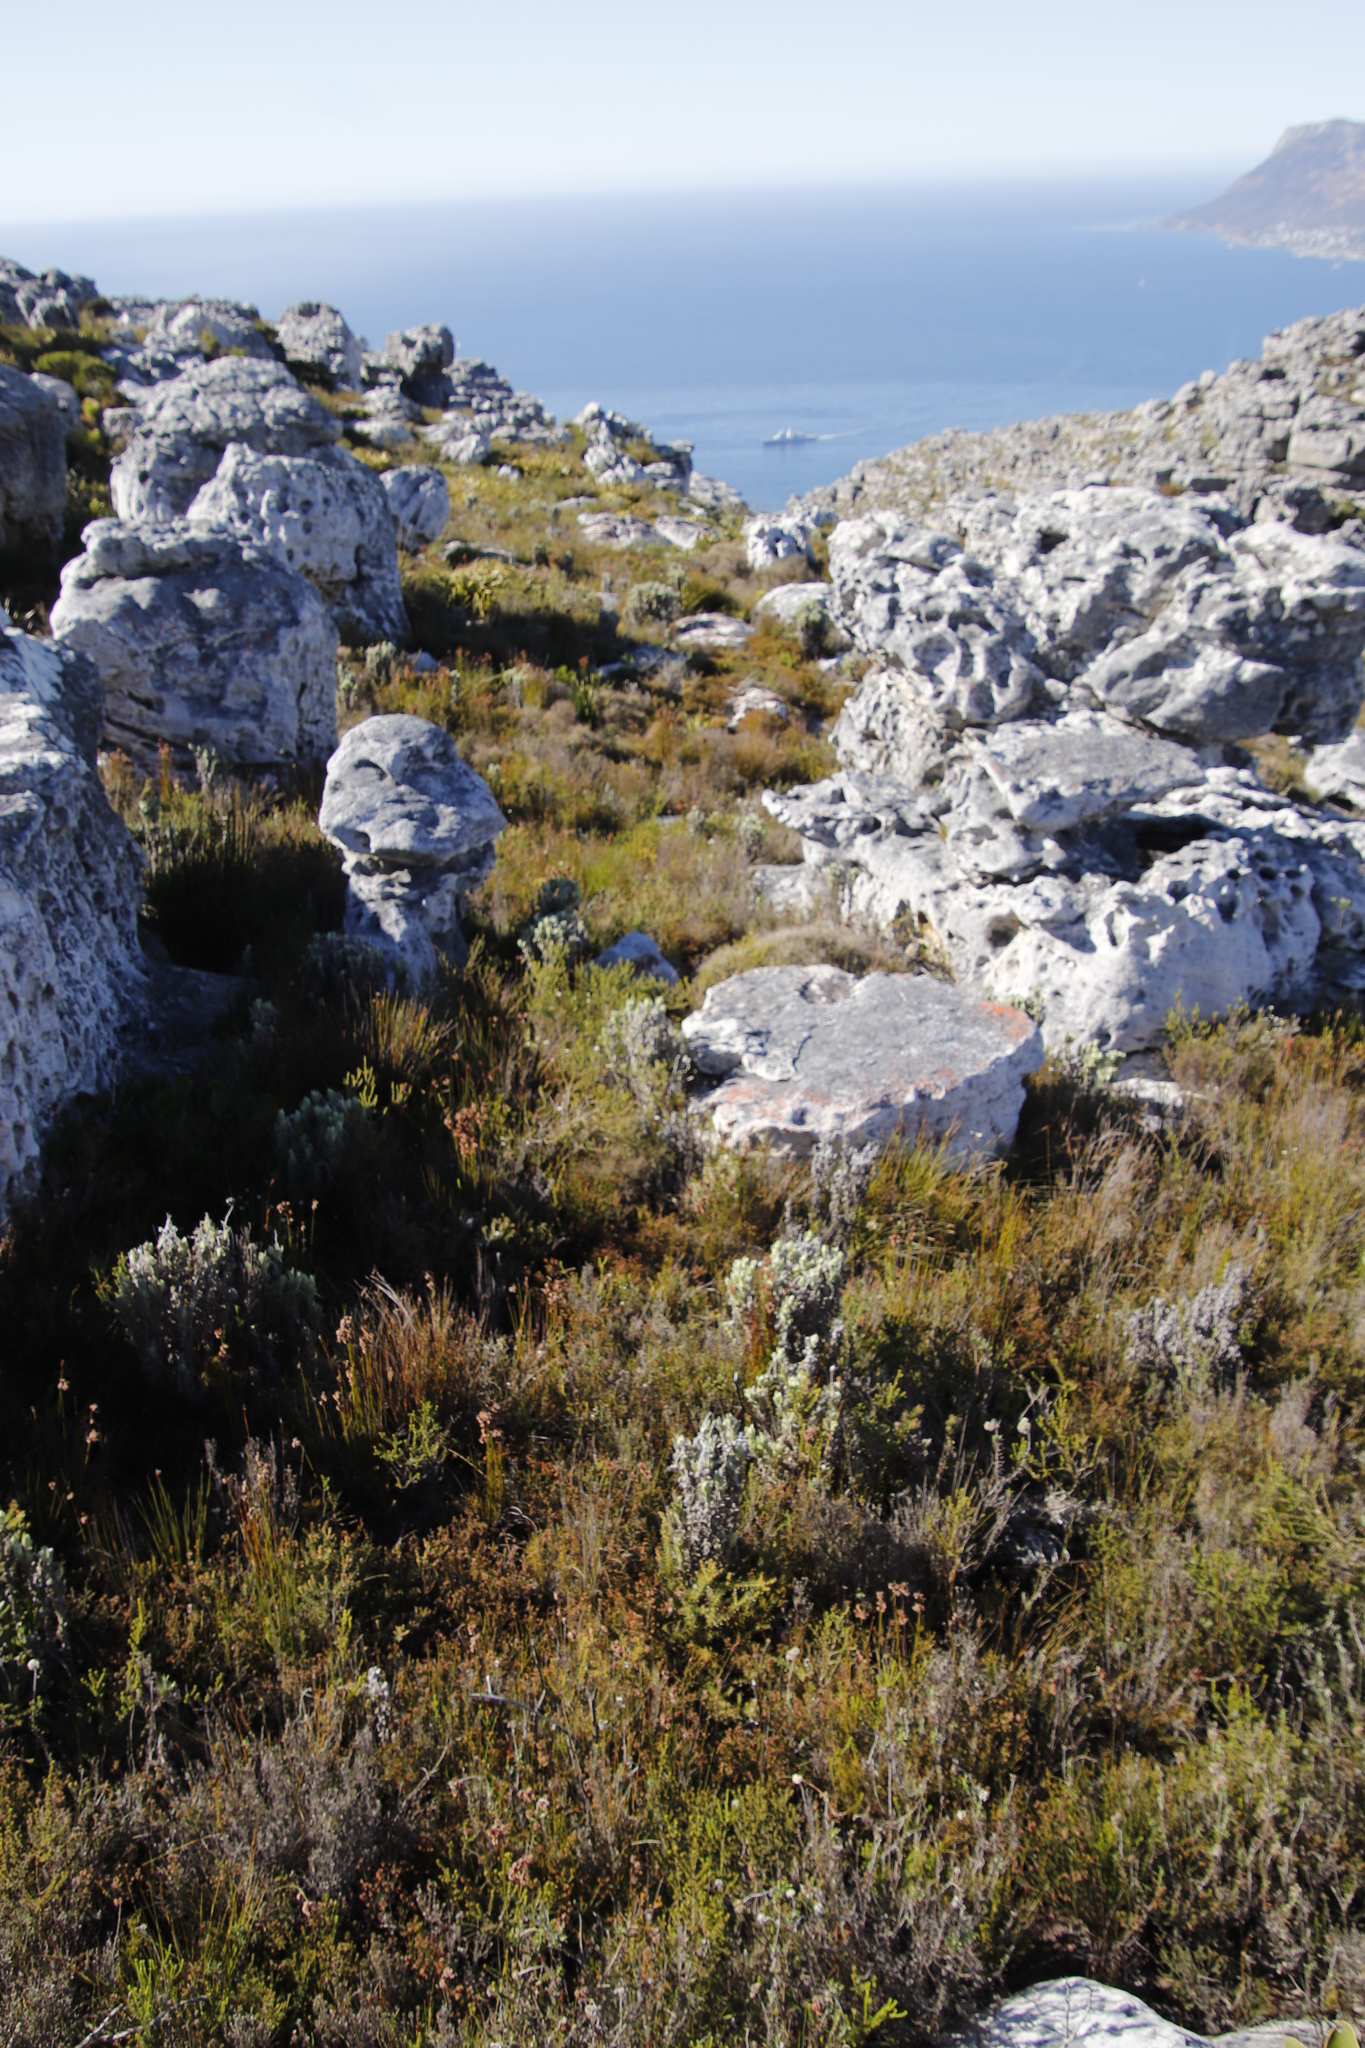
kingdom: Plantae
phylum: Tracheophyta
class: Magnoliopsida
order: Asterales
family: Asteraceae
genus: Syncarpha
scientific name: Syncarpha vestita
